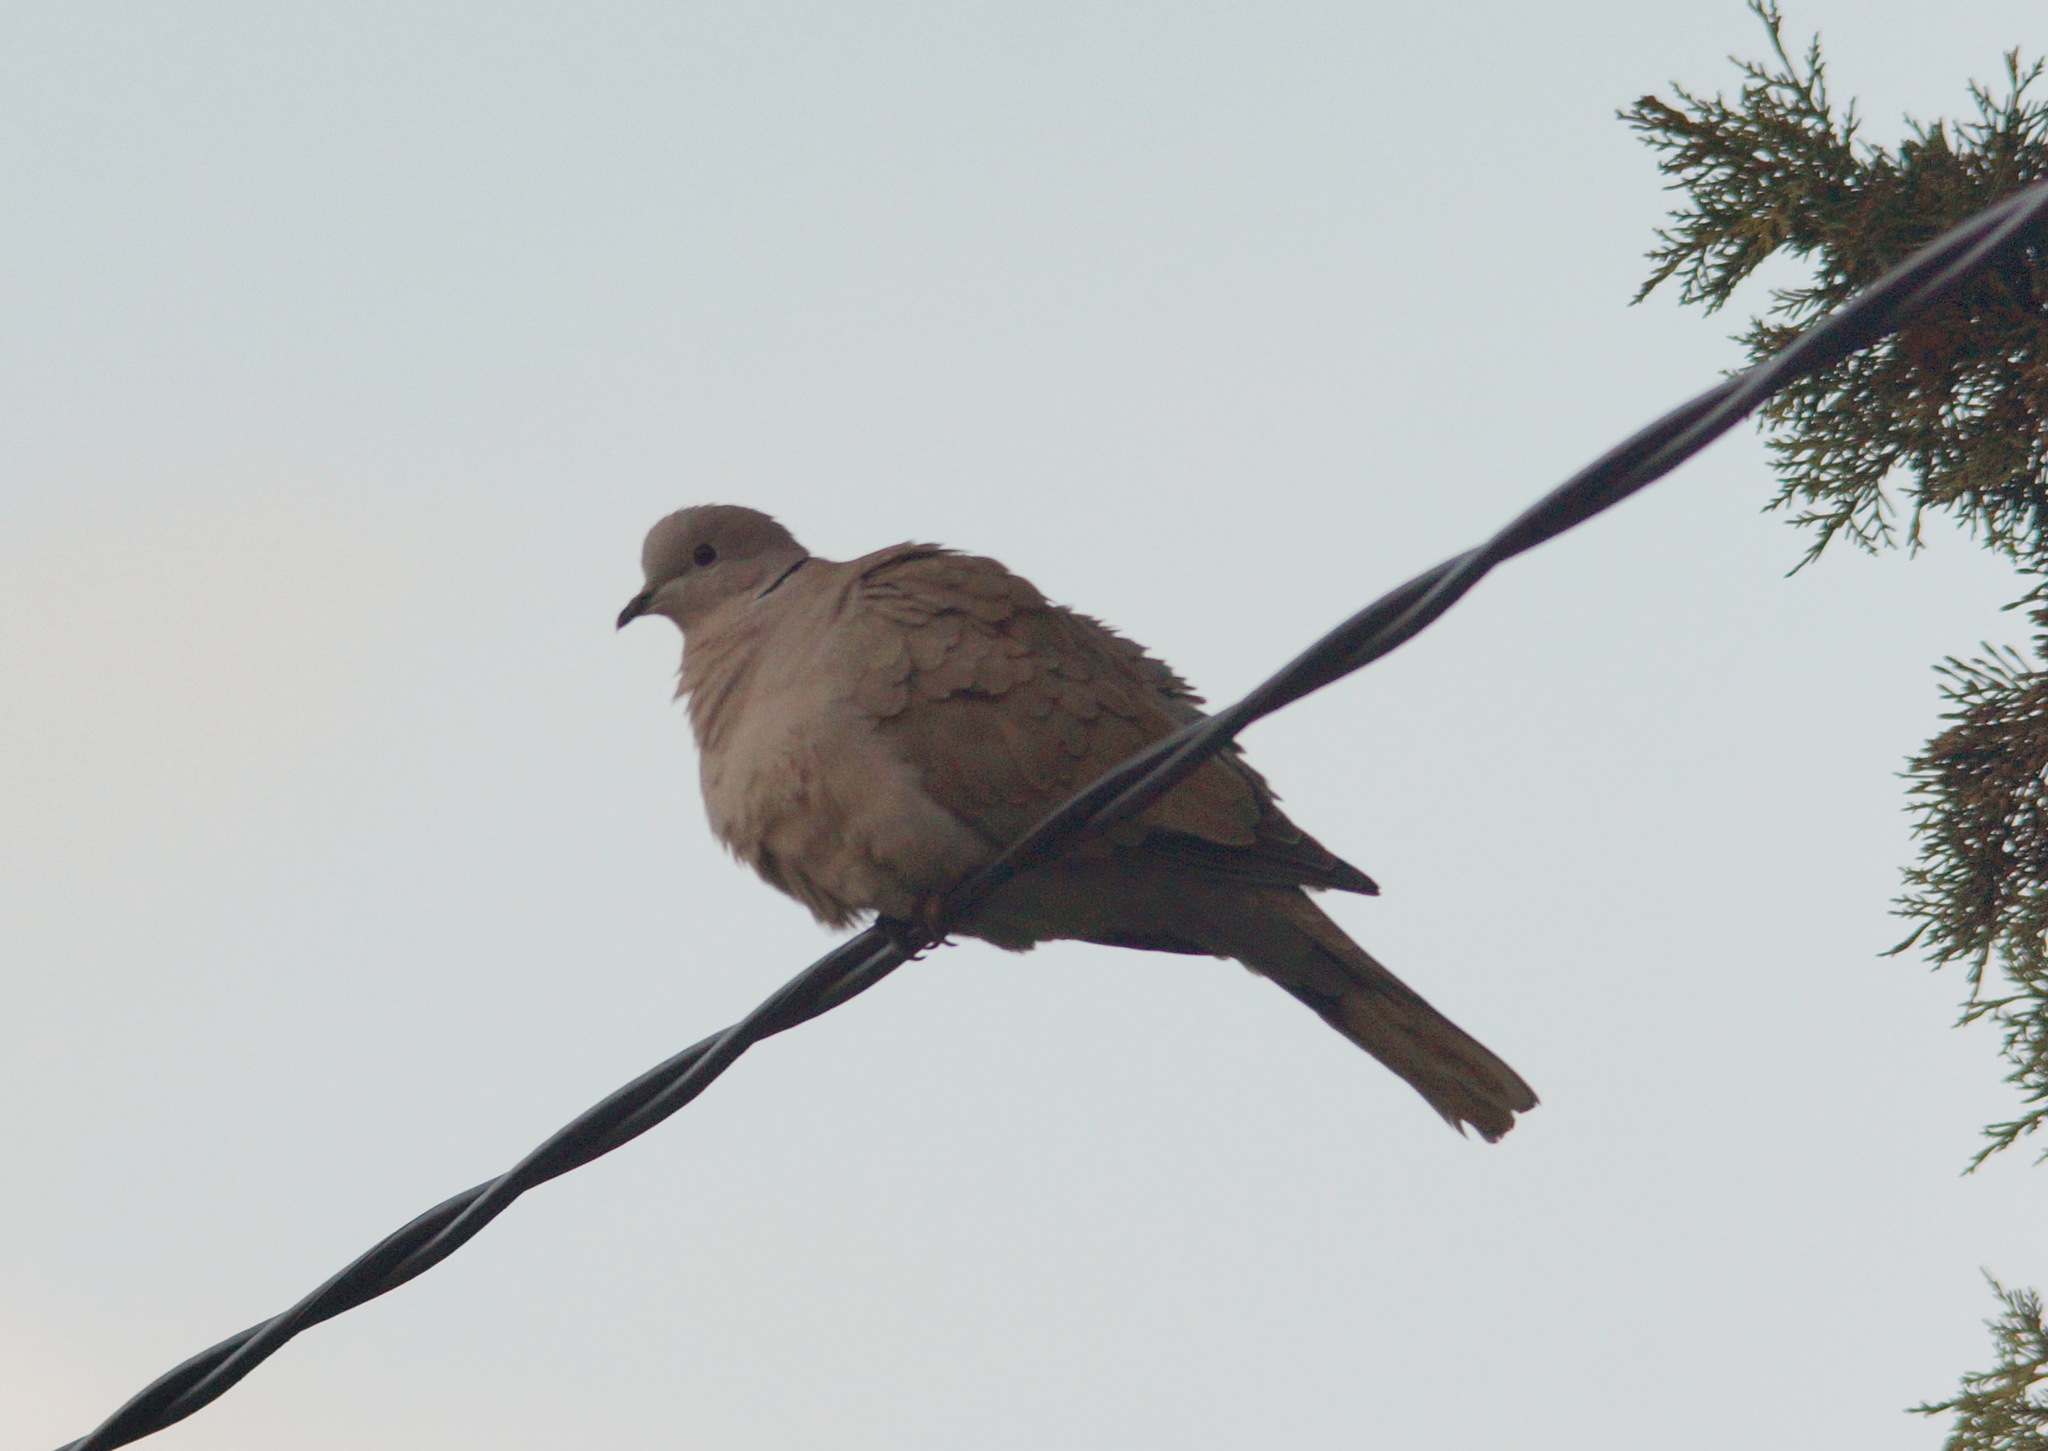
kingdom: Animalia
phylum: Chordata
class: Aves
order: Columbiformes
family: Columbidae
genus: Streptopelia
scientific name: Streptopelia decaocto
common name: Eurasian collared dove
